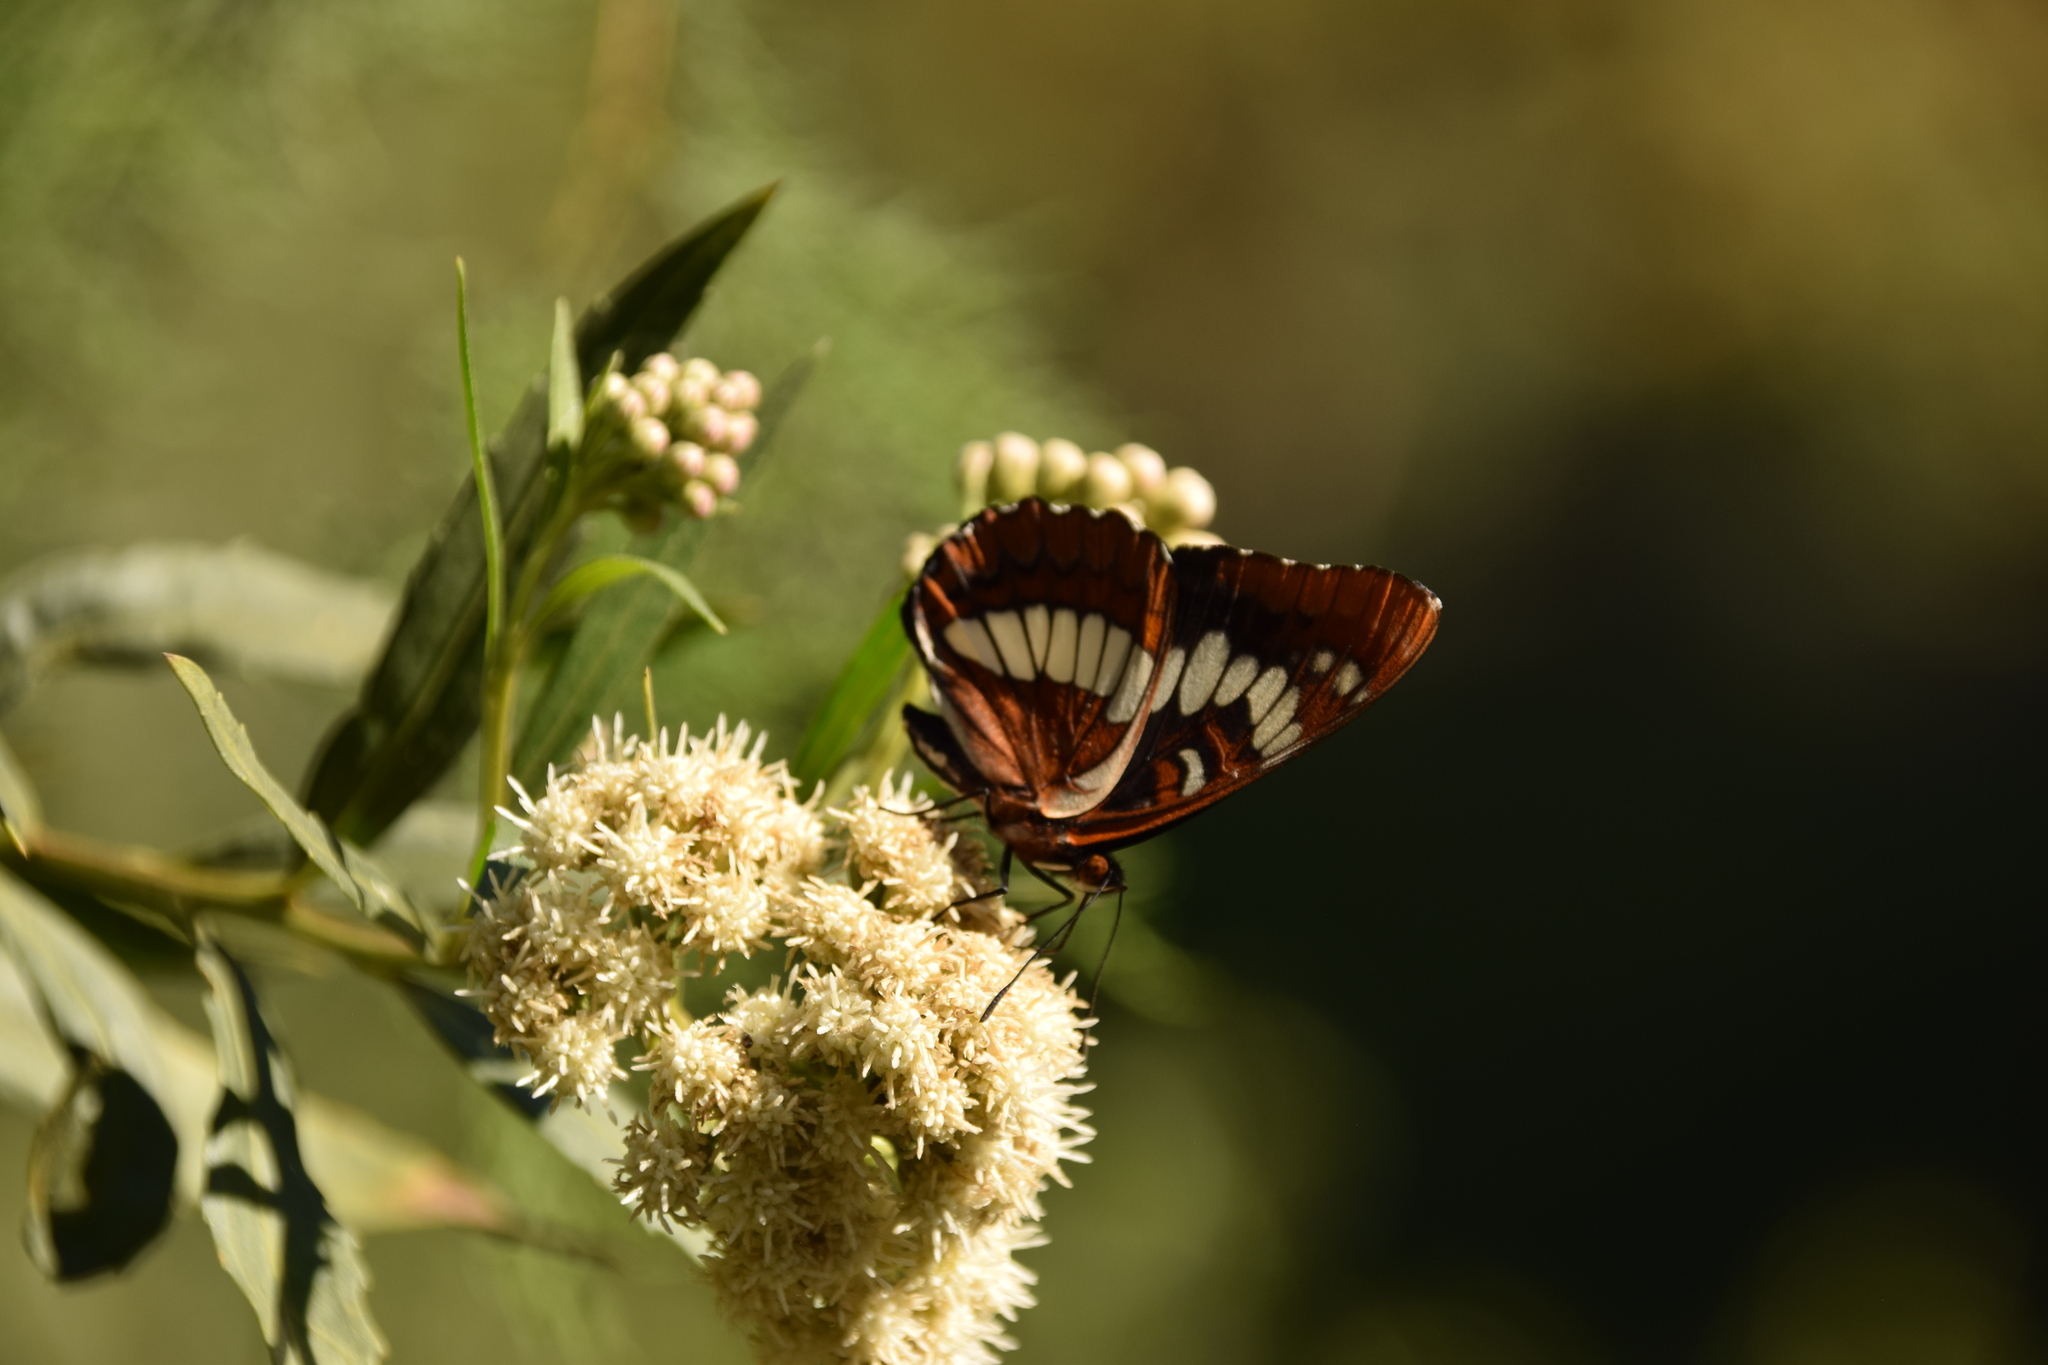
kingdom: Animalia
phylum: Arthropoda
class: Insecta
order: Lepidoptera
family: Nymphalidae
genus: Limenitis
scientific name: Limenitis lorquini
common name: Lorquin's admiral
